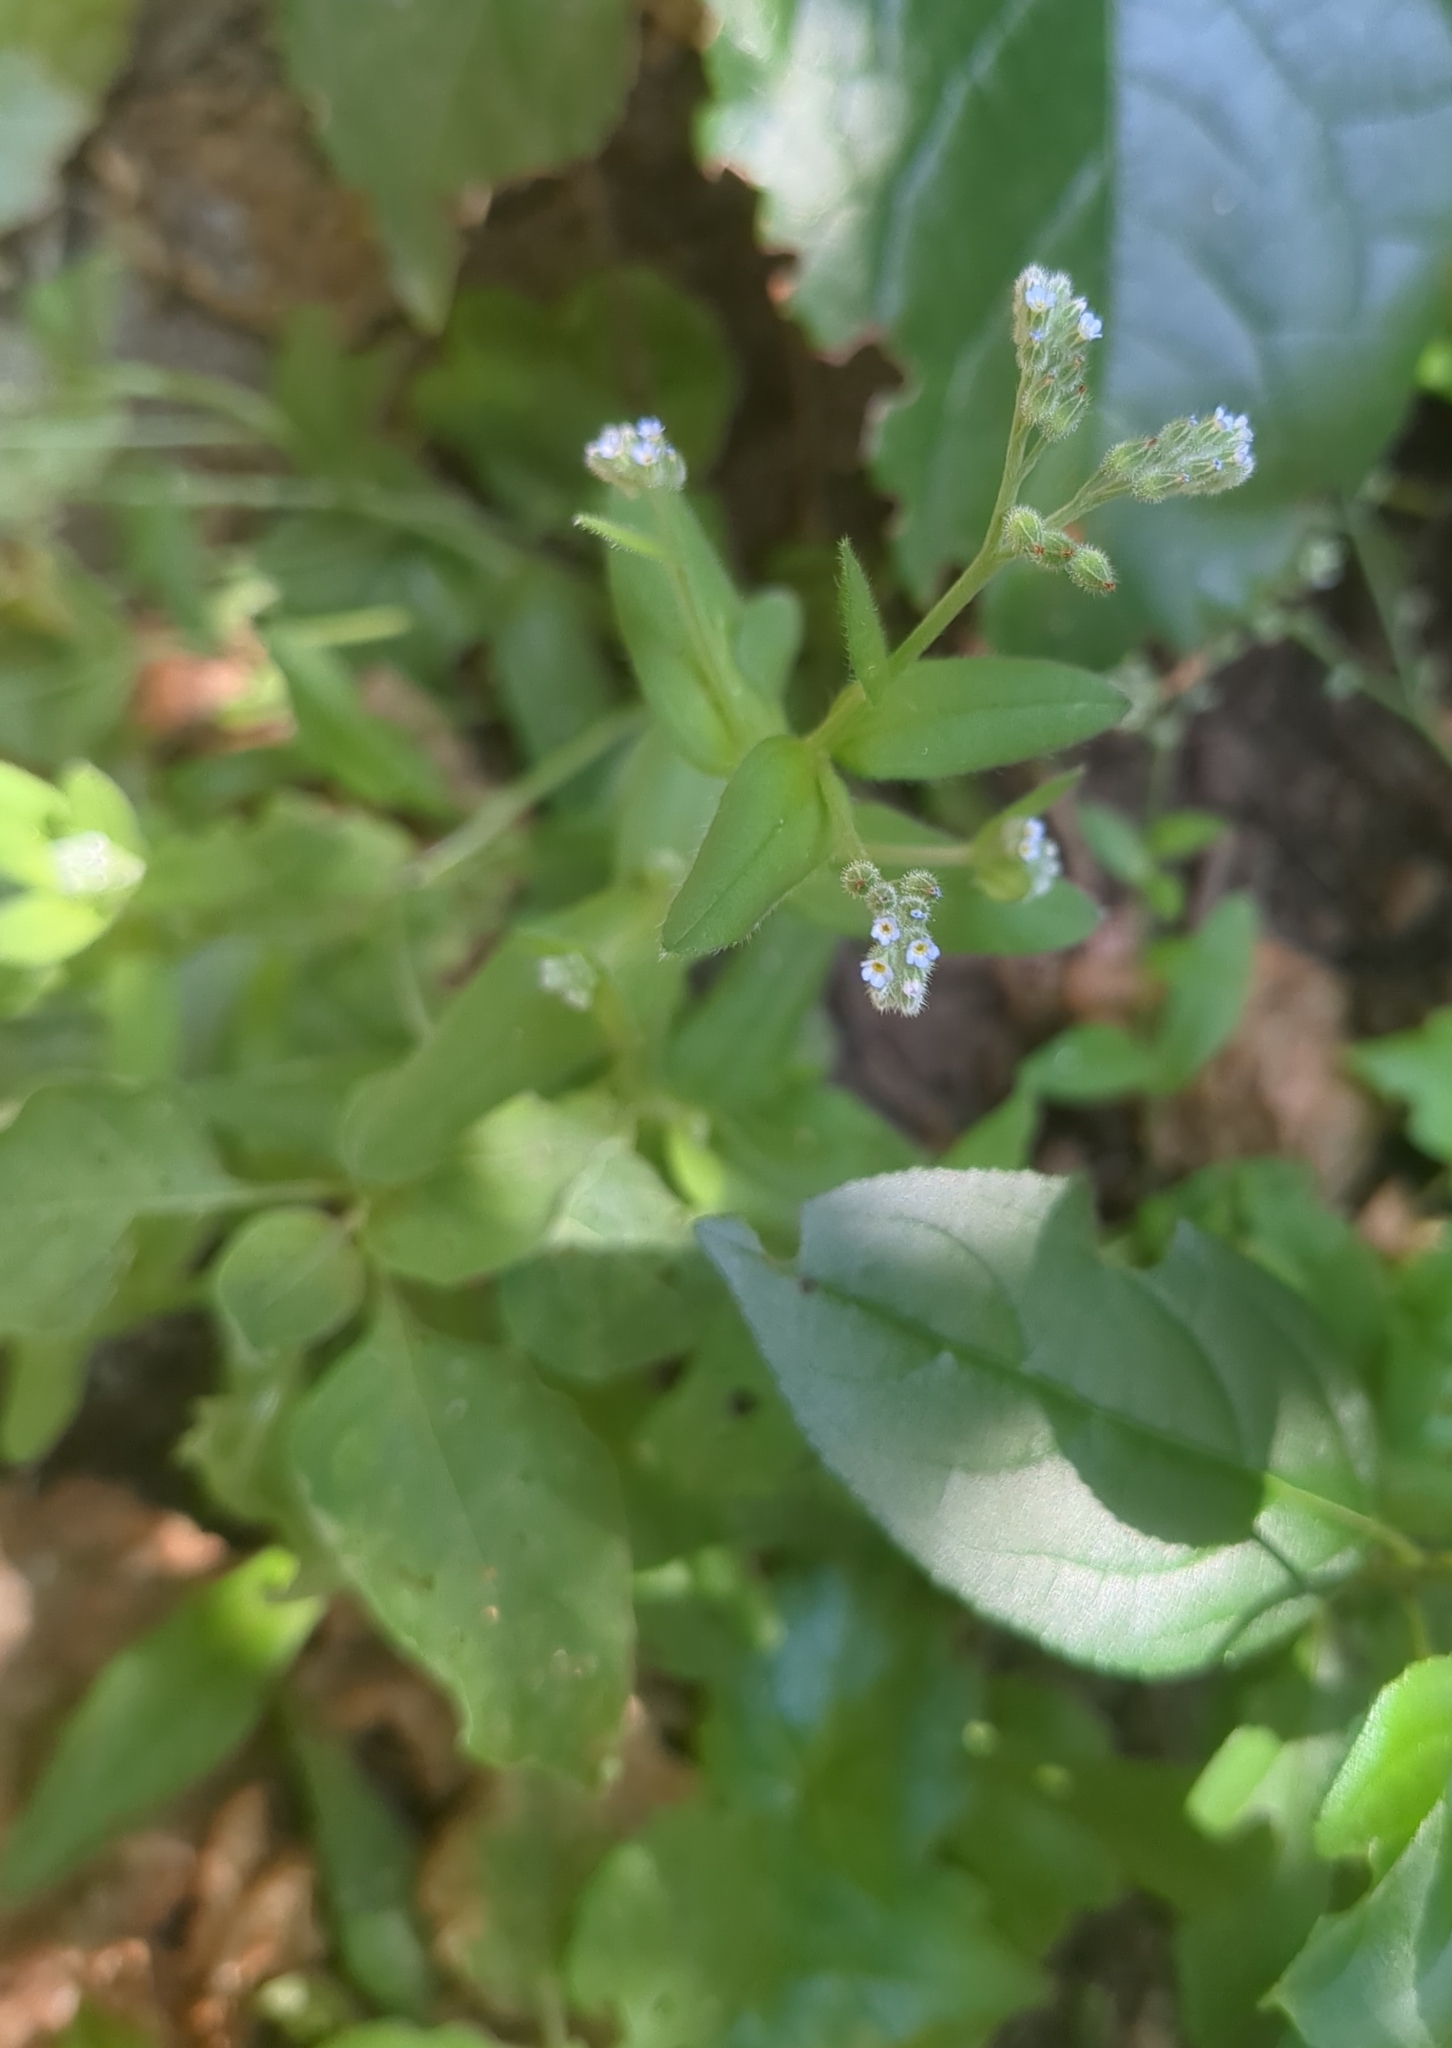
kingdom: Plantae
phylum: Tracheophyta
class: Magnoliopsida
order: Boraginales
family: Boraginaceae
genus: Myosotis
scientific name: Myosotis arvensis
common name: Field forget-me-not
